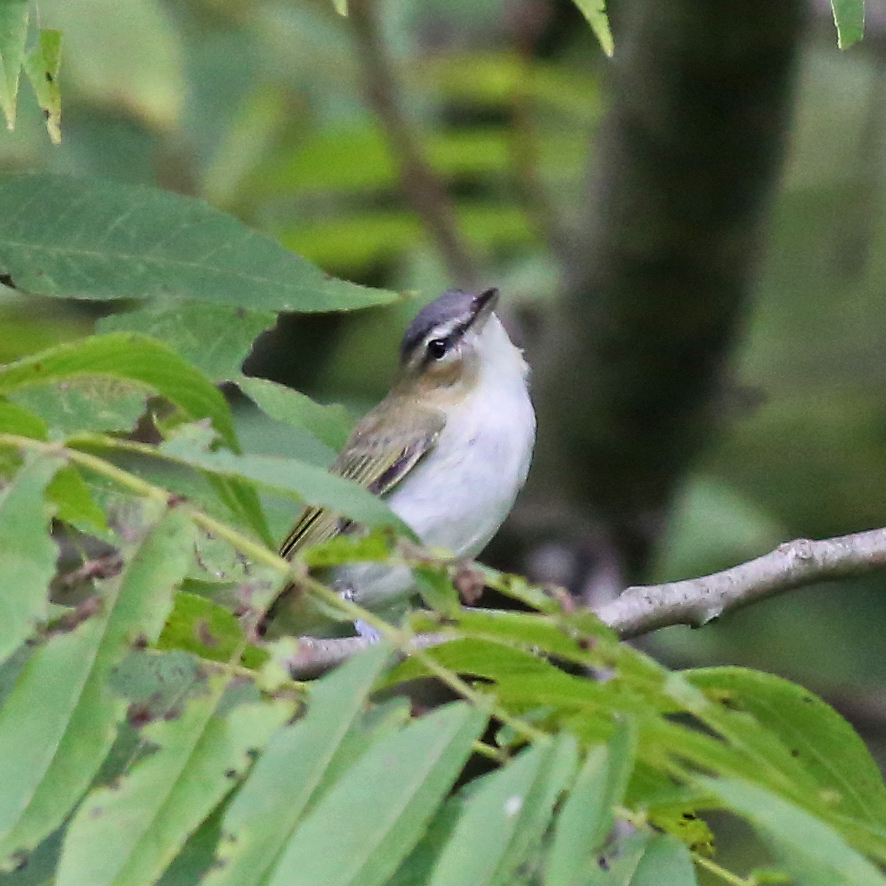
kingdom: Animalia
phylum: Chordata
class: Aves
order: Passeriformes
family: Vireonidae
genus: Vireo
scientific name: Vireo olivaceus
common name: Red-eyed vireo
